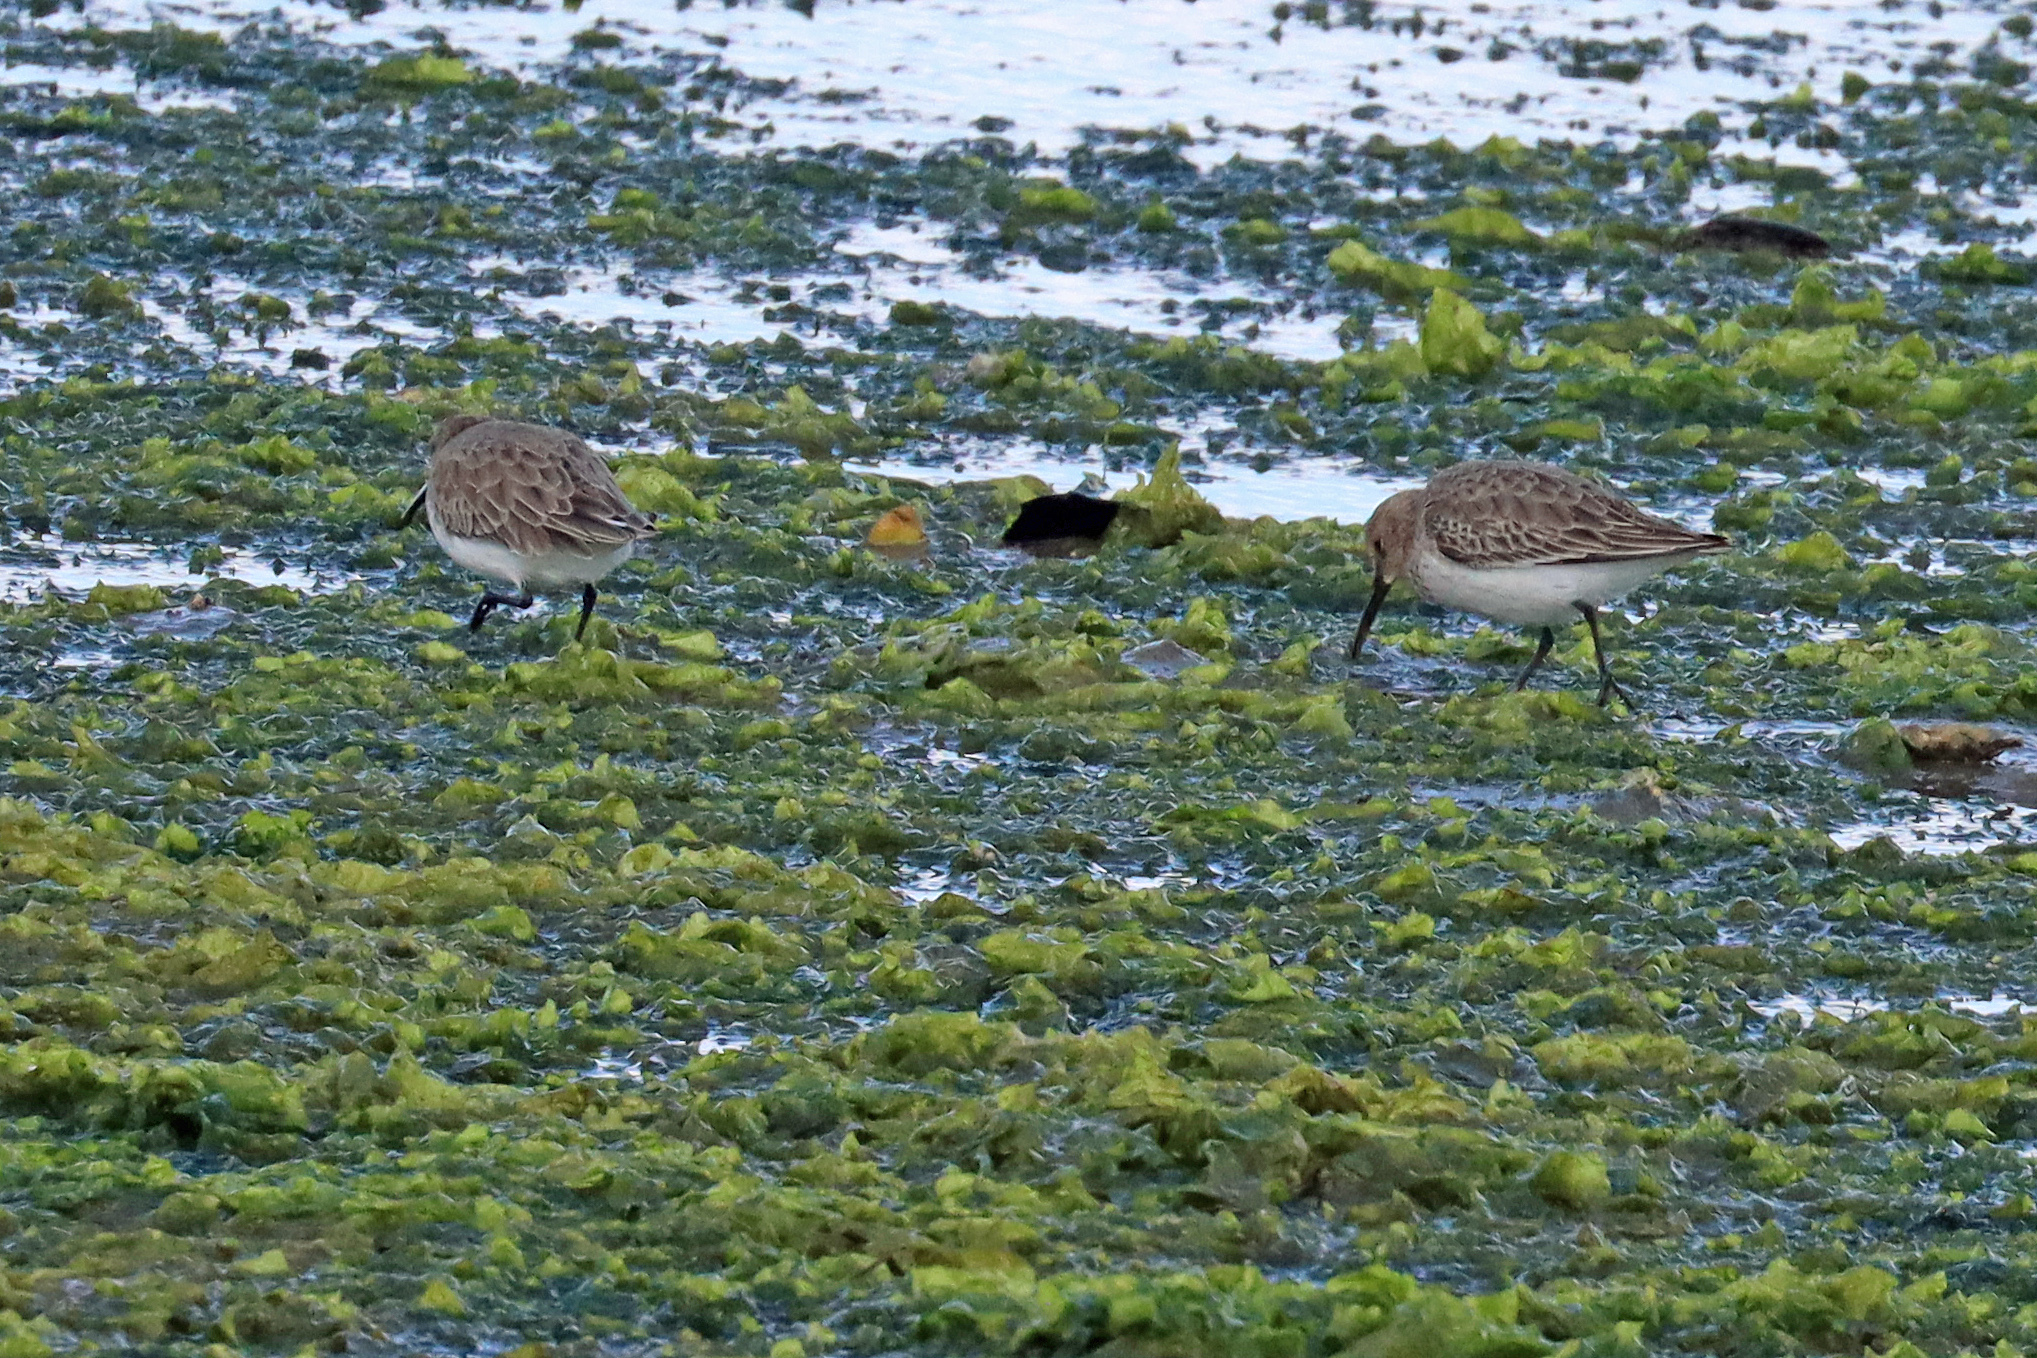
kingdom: Animalia
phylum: Chordata
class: Aves
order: Charadriiformes
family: Scolopacidae
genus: Calidris
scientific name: Calidris alpina
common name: Dunlin
